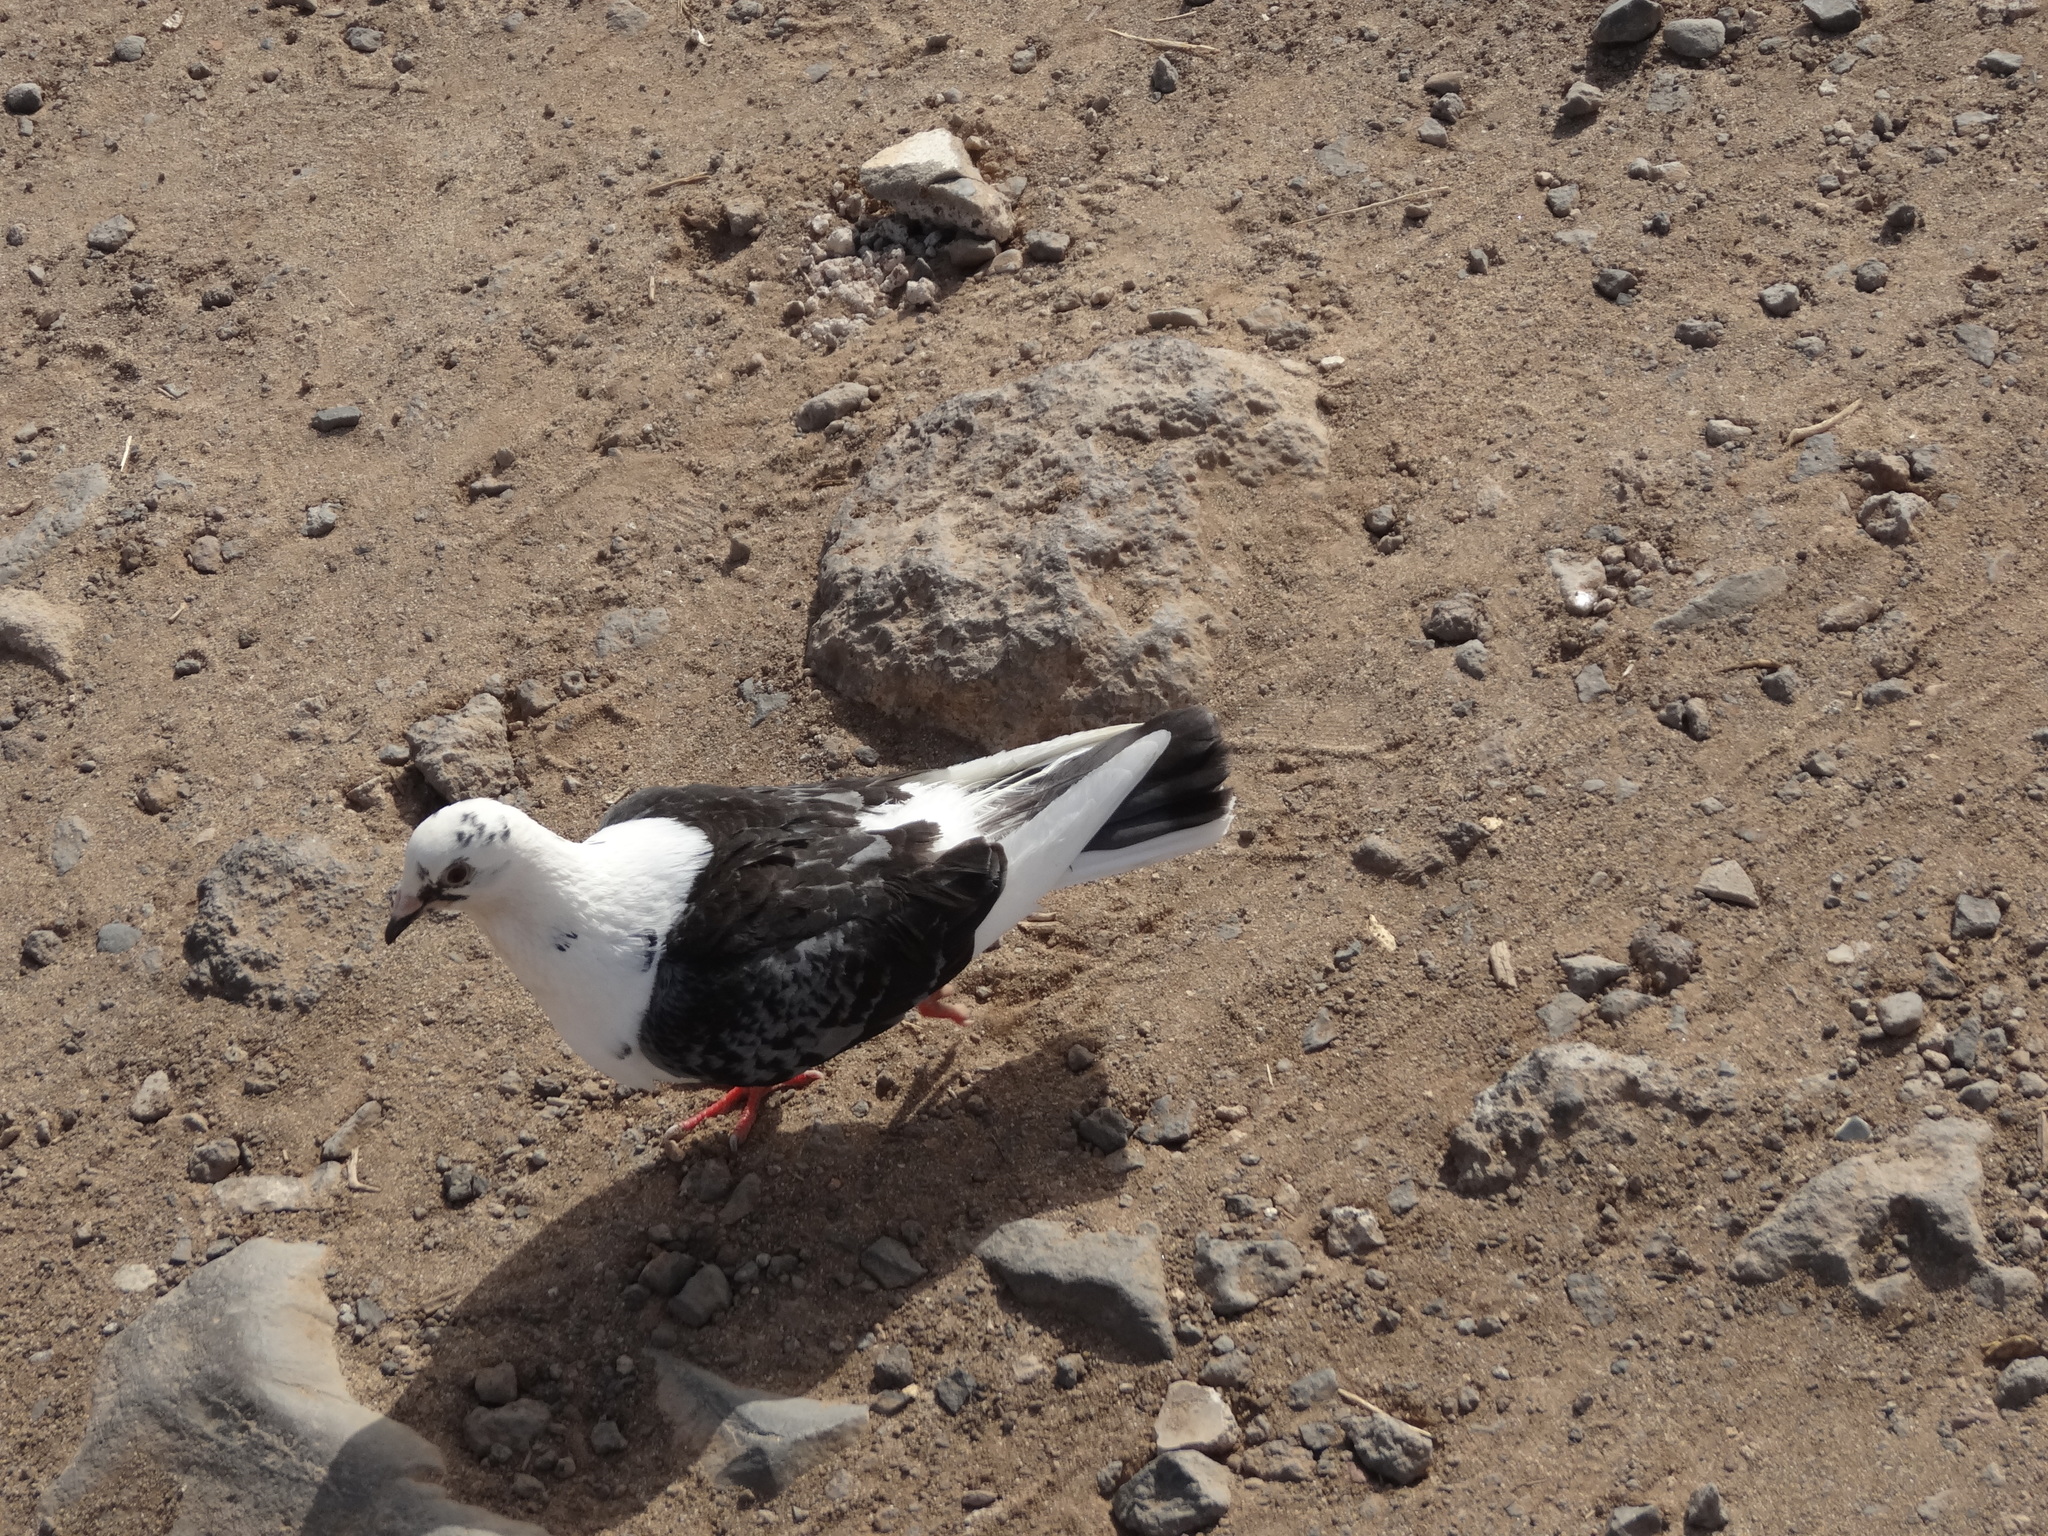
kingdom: Animalia
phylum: Chordata
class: Aves
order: Columbiformes
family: Columbidae
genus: Columba
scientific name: Columba livia
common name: Rock pigeon
